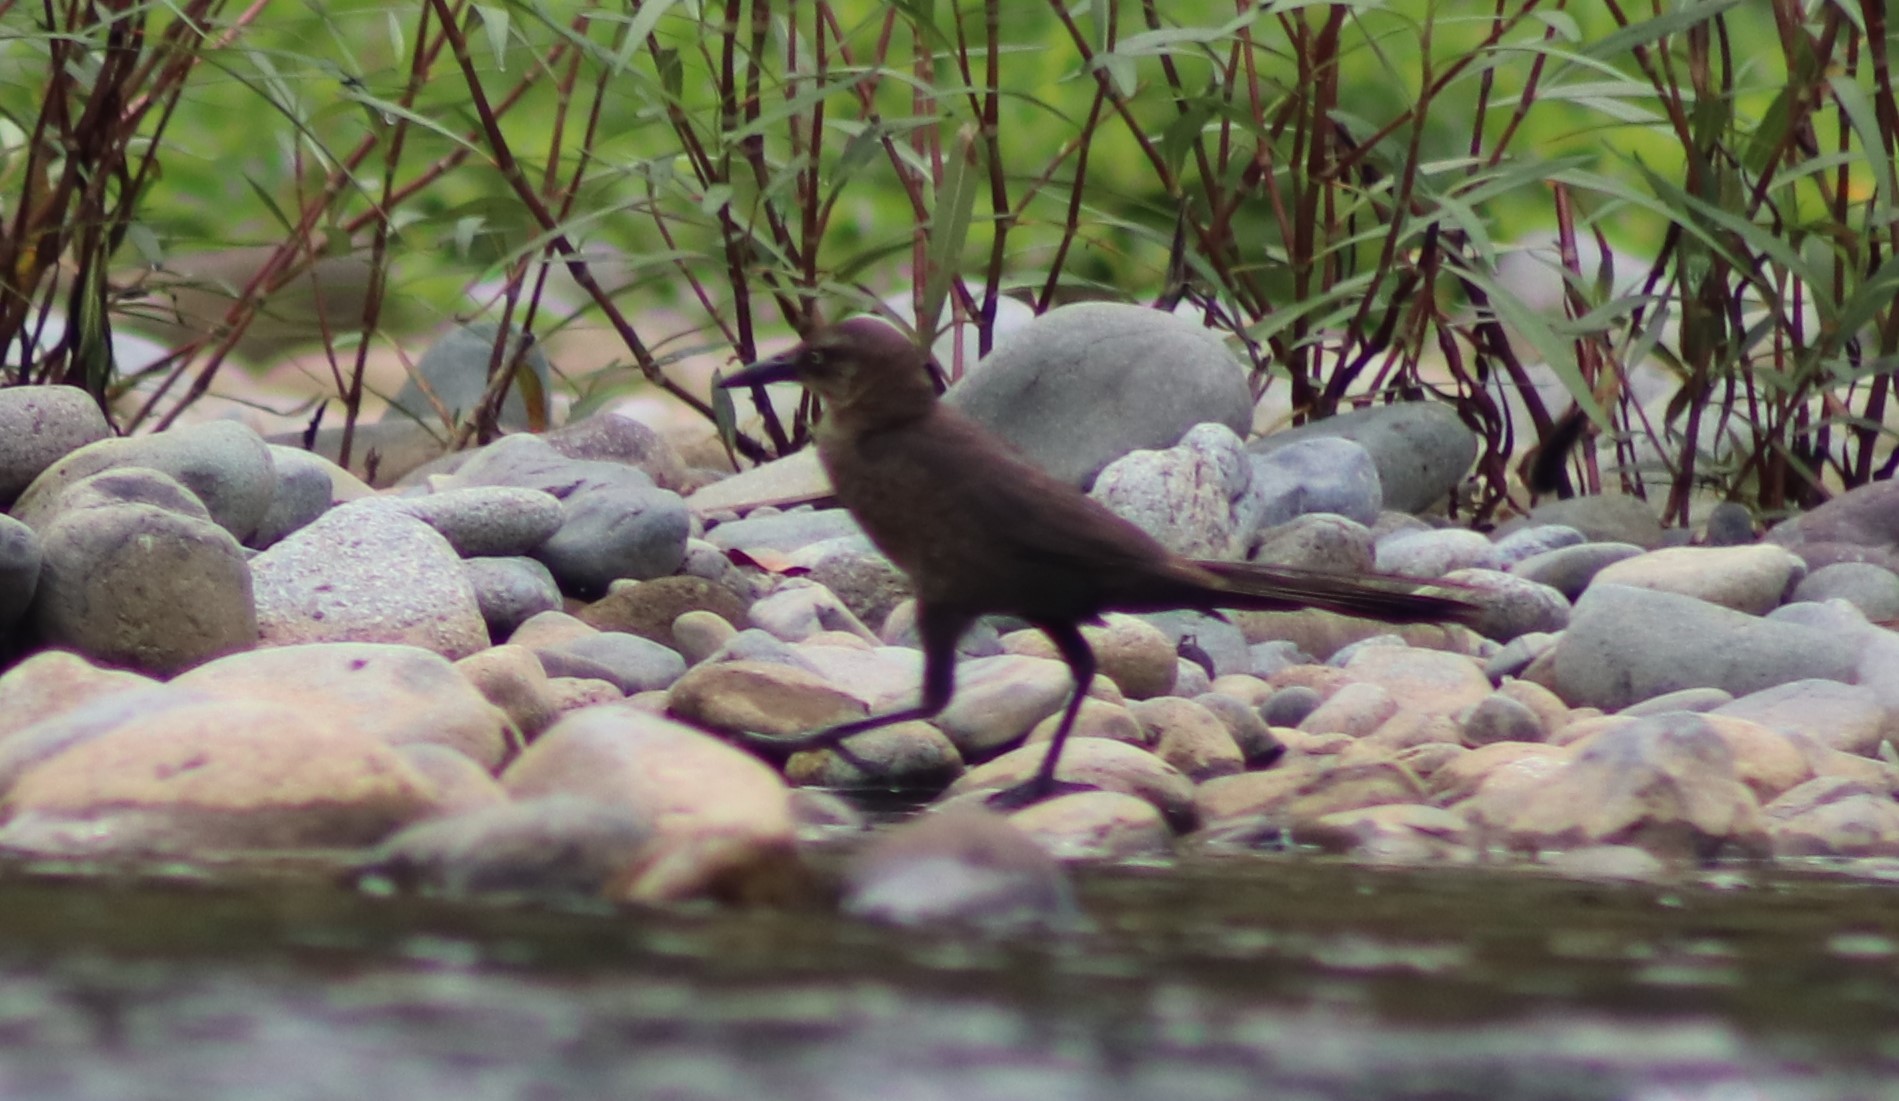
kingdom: Animalia
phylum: Chordata
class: Aves
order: Passeriformes
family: Icteridae
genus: Quiscalus
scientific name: Quiscalus mexicanus
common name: Great-tailed grackle
